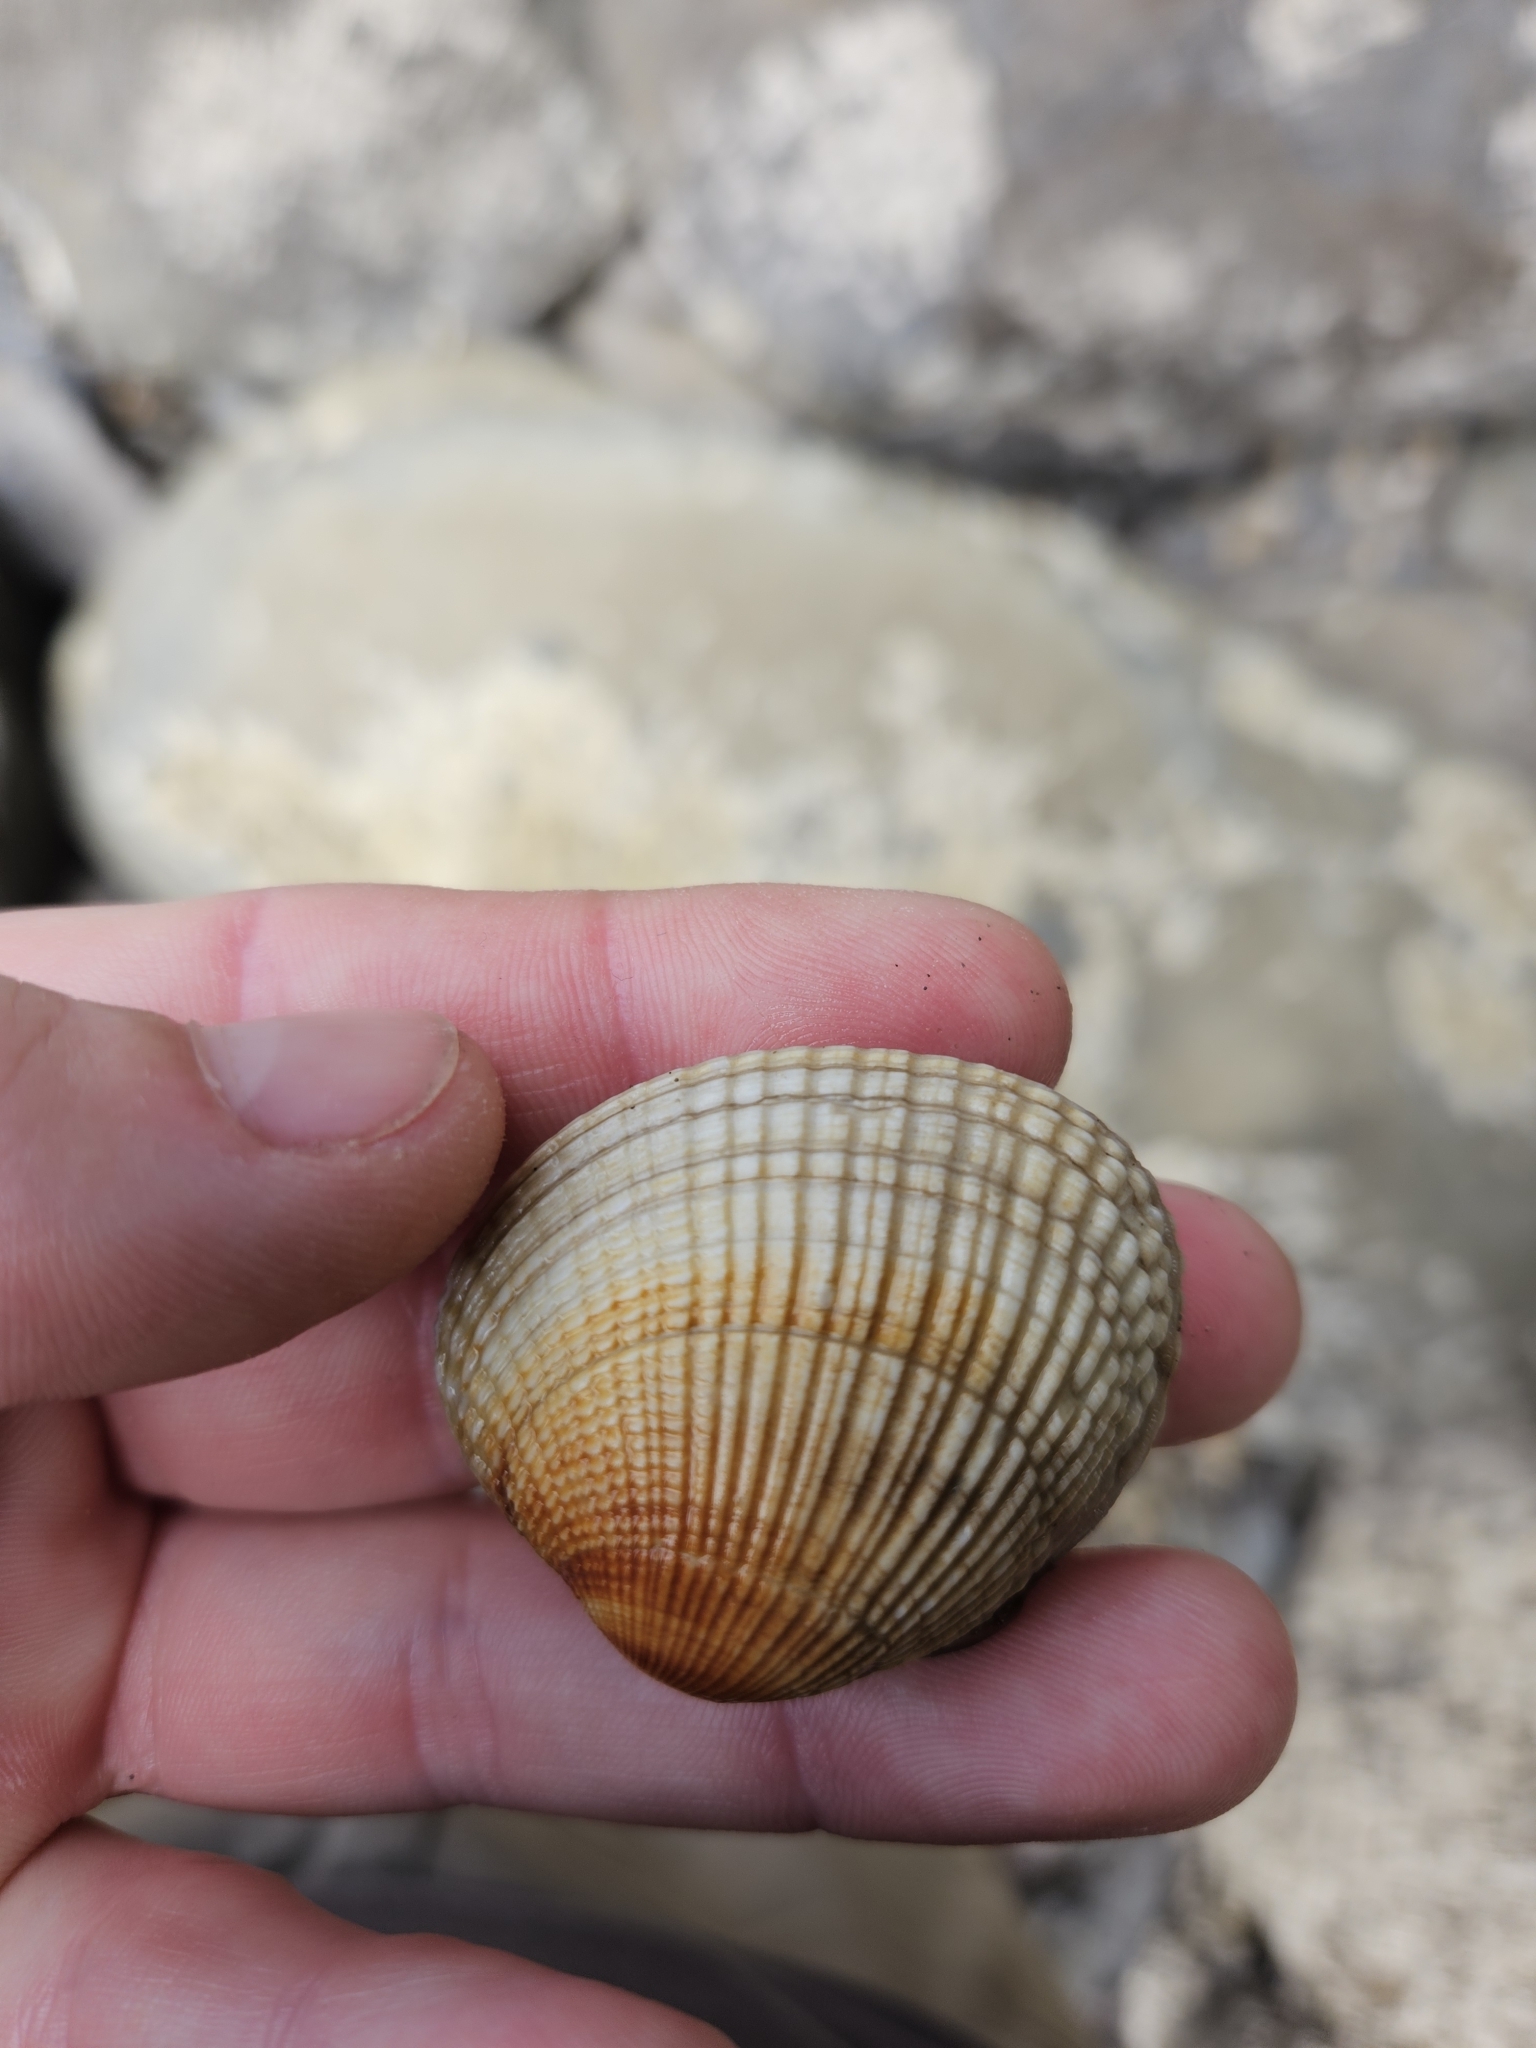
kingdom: Animalia
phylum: Mollusca
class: Bivalvia
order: Venerida
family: Veneridae
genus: Leukoma
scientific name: Leukoma crassicosta
